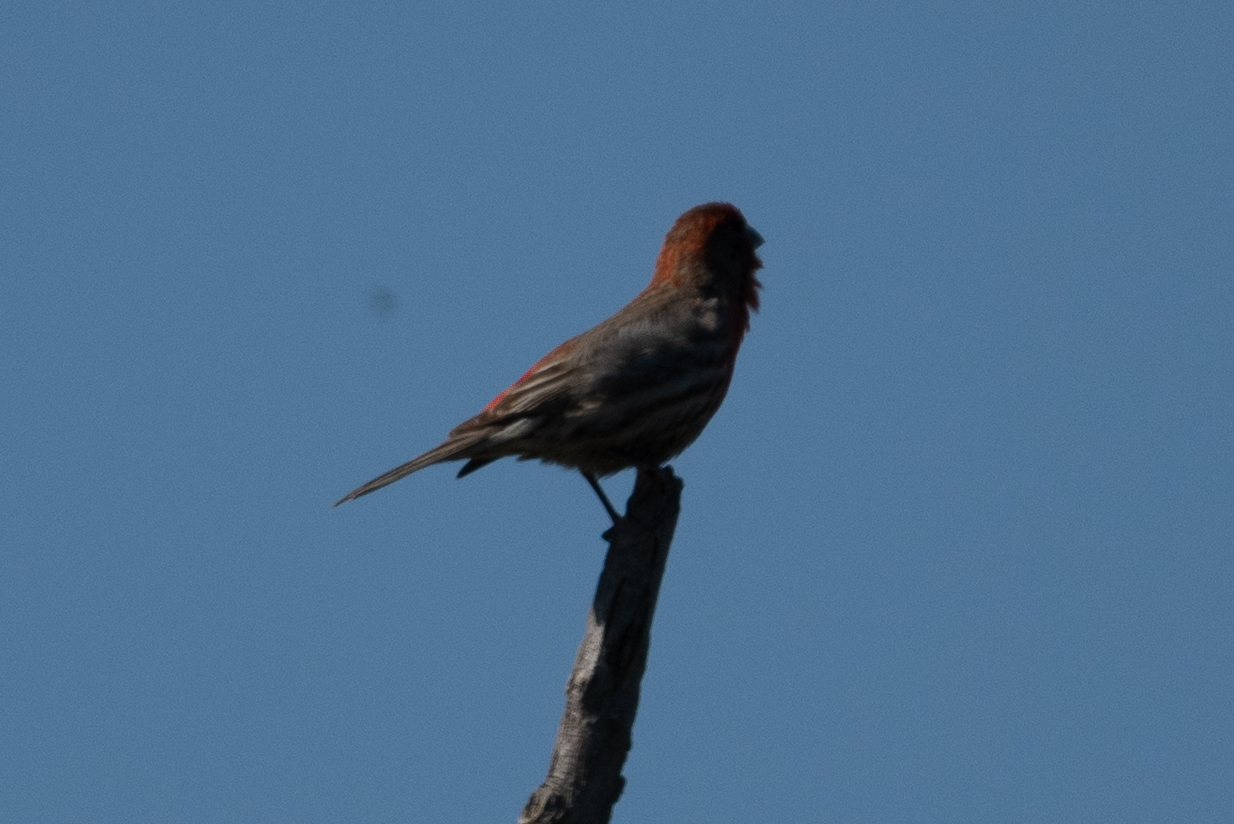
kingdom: Animalia
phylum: Chordata
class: Aves
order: Passeriformes
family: Fringillidae
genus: Haemorhous
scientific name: Haemorhous mexicanus
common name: House finch
